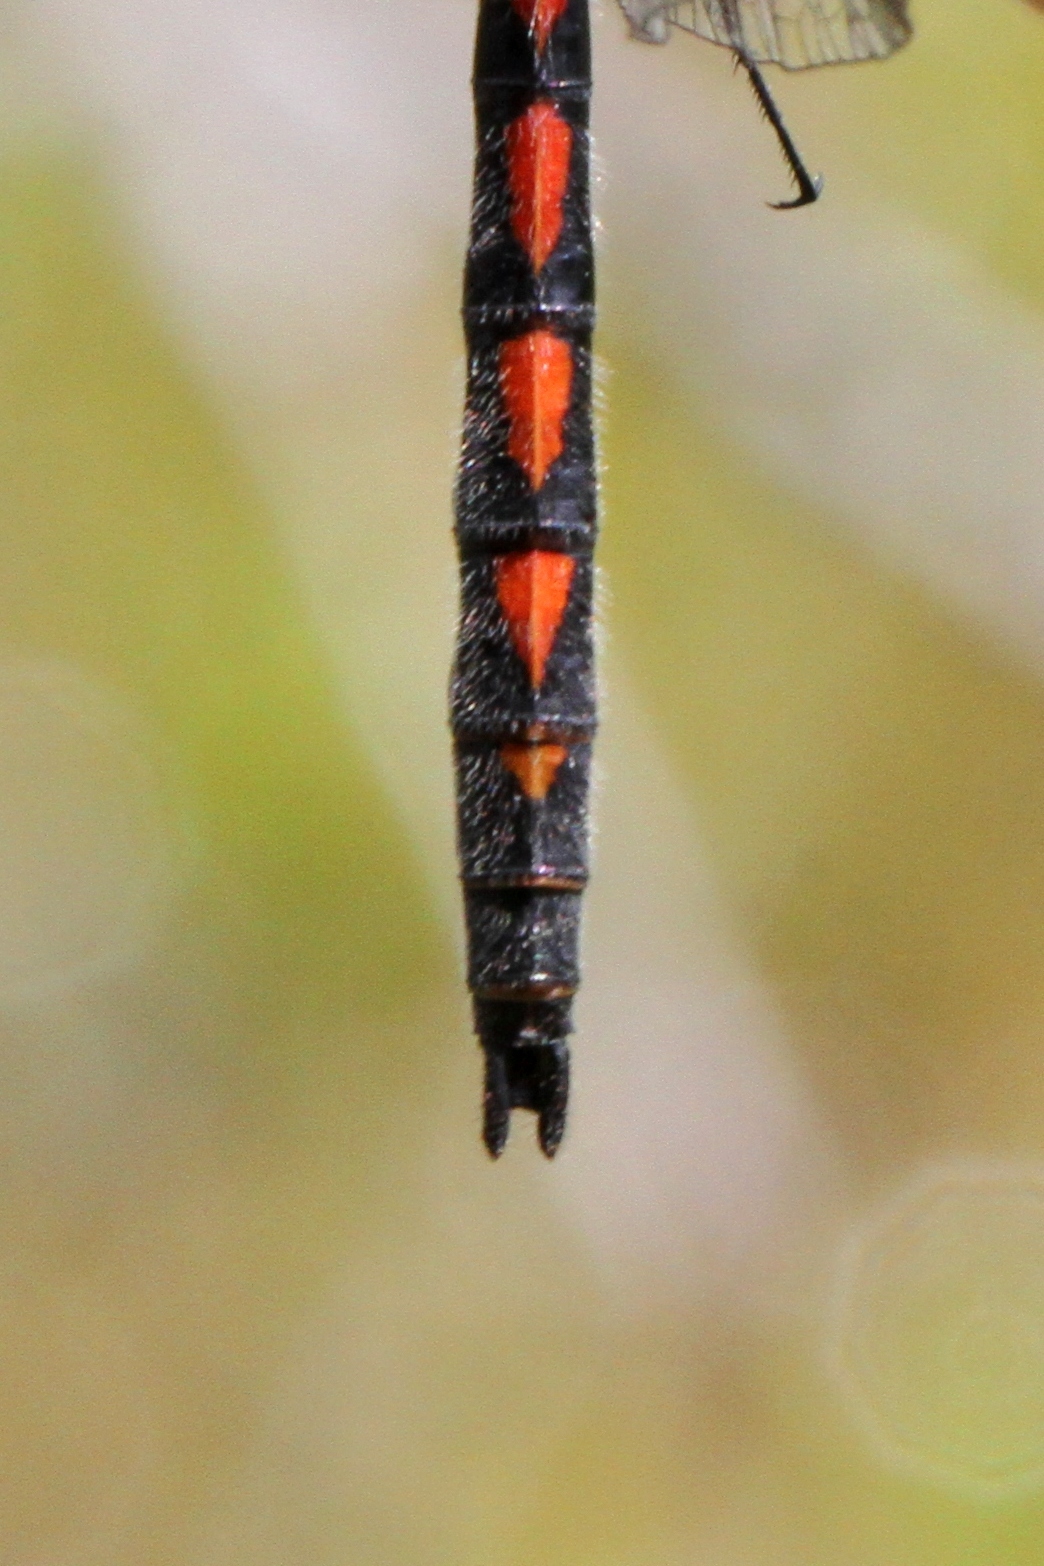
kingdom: Animalia
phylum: Arthropoda
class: Insecta
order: Odonata
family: Libellulidae
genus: Leucorrhinia
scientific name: Leucorrhinia hudsonica
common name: Hudsonian whiteface
